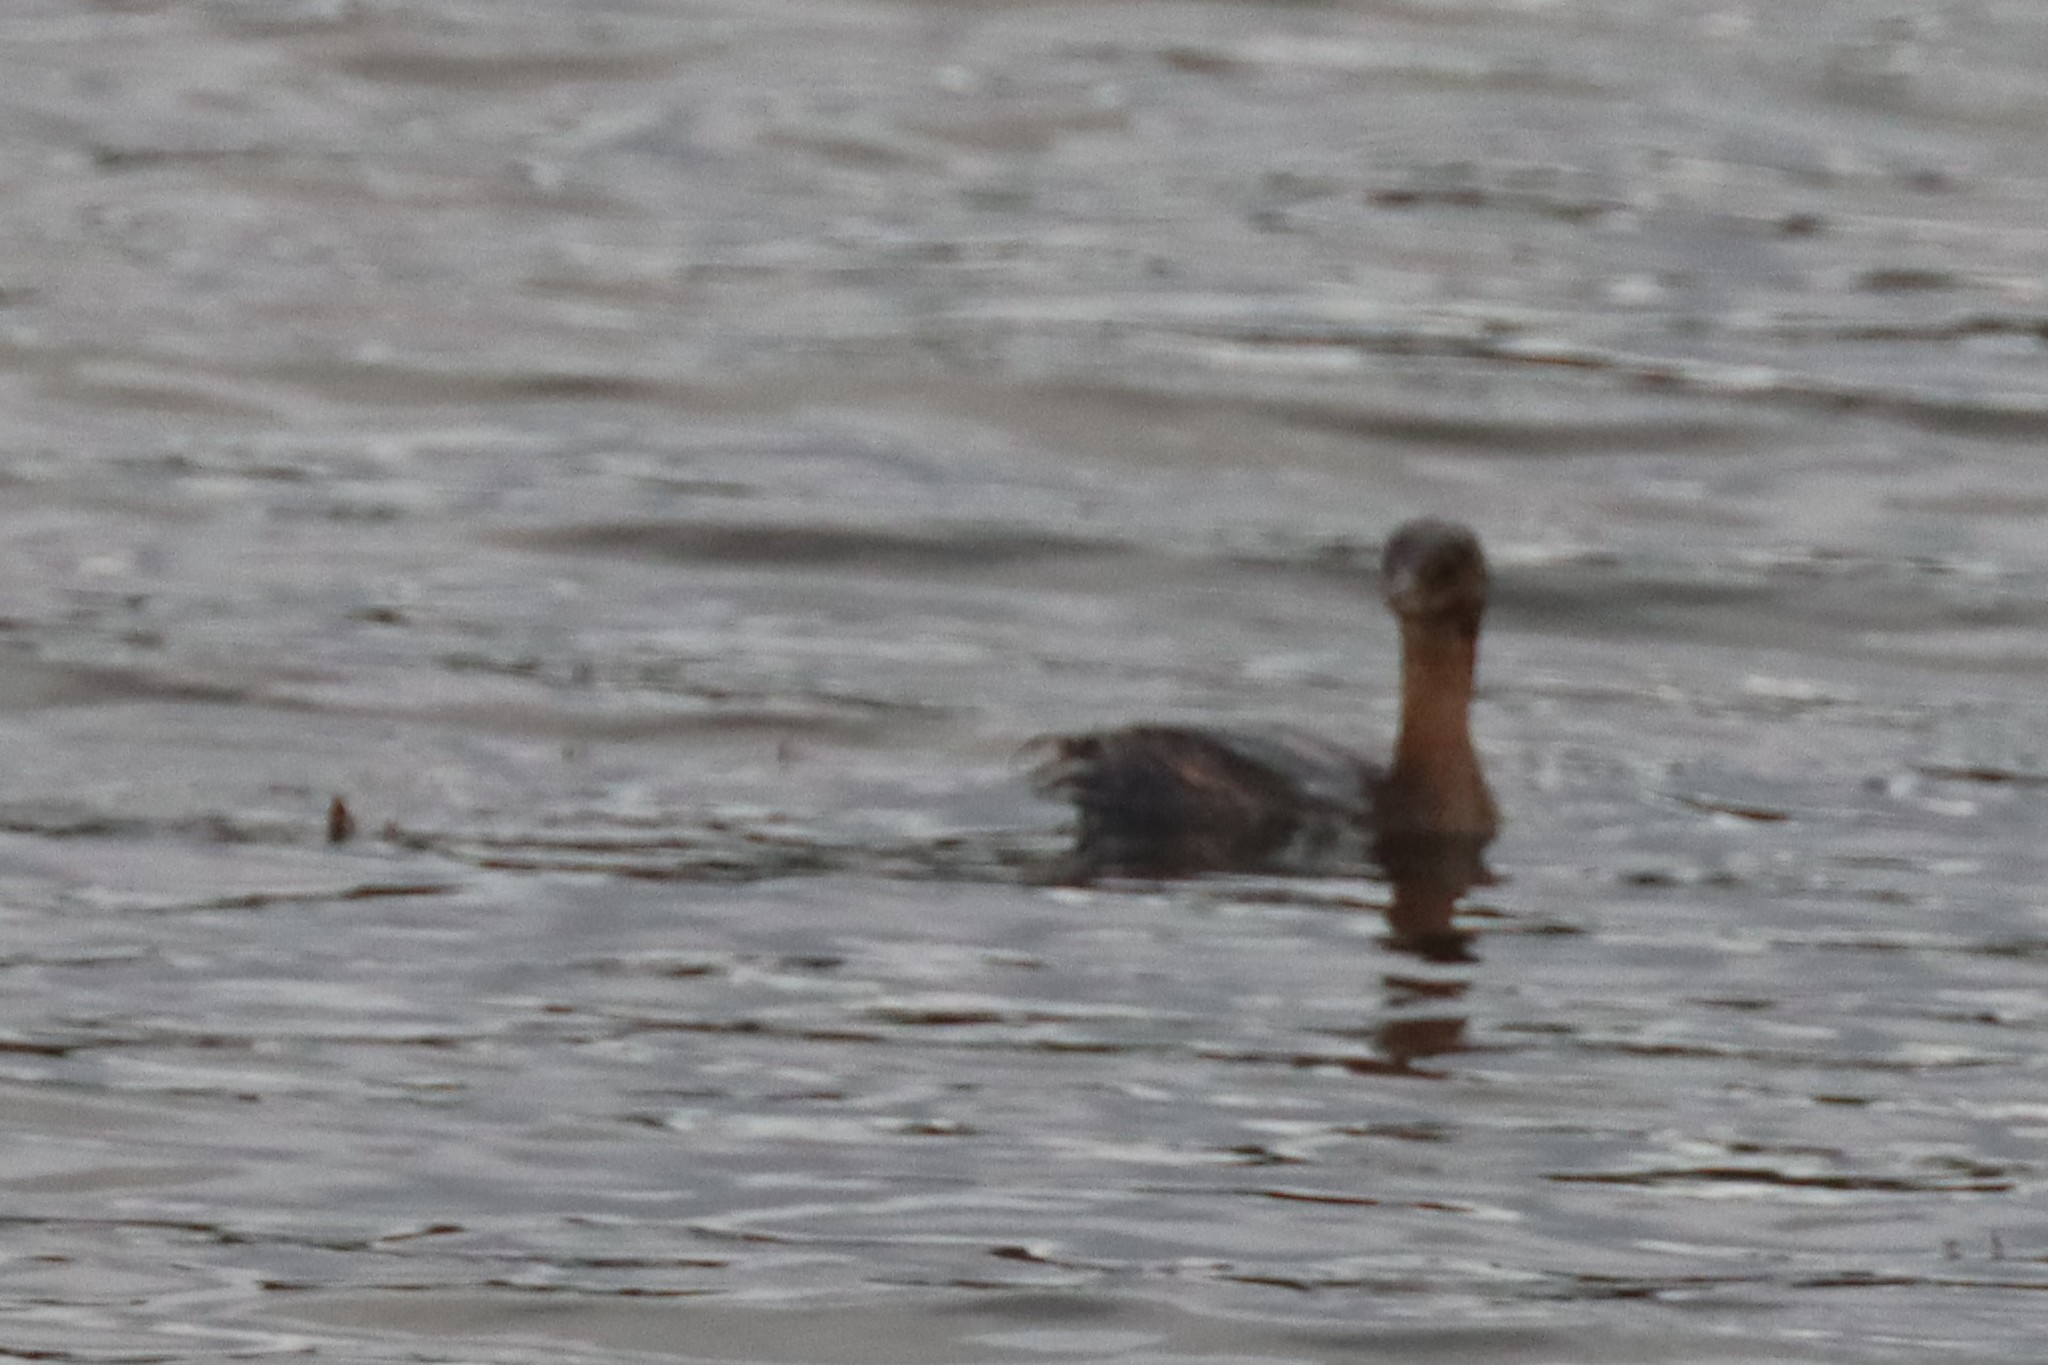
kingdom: Animalia
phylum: Chordata
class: Aves
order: Podicipediformes
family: Podicipedidae
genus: Podilymbus
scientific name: Podilymbus podiceps
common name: Pied-billed grebe
